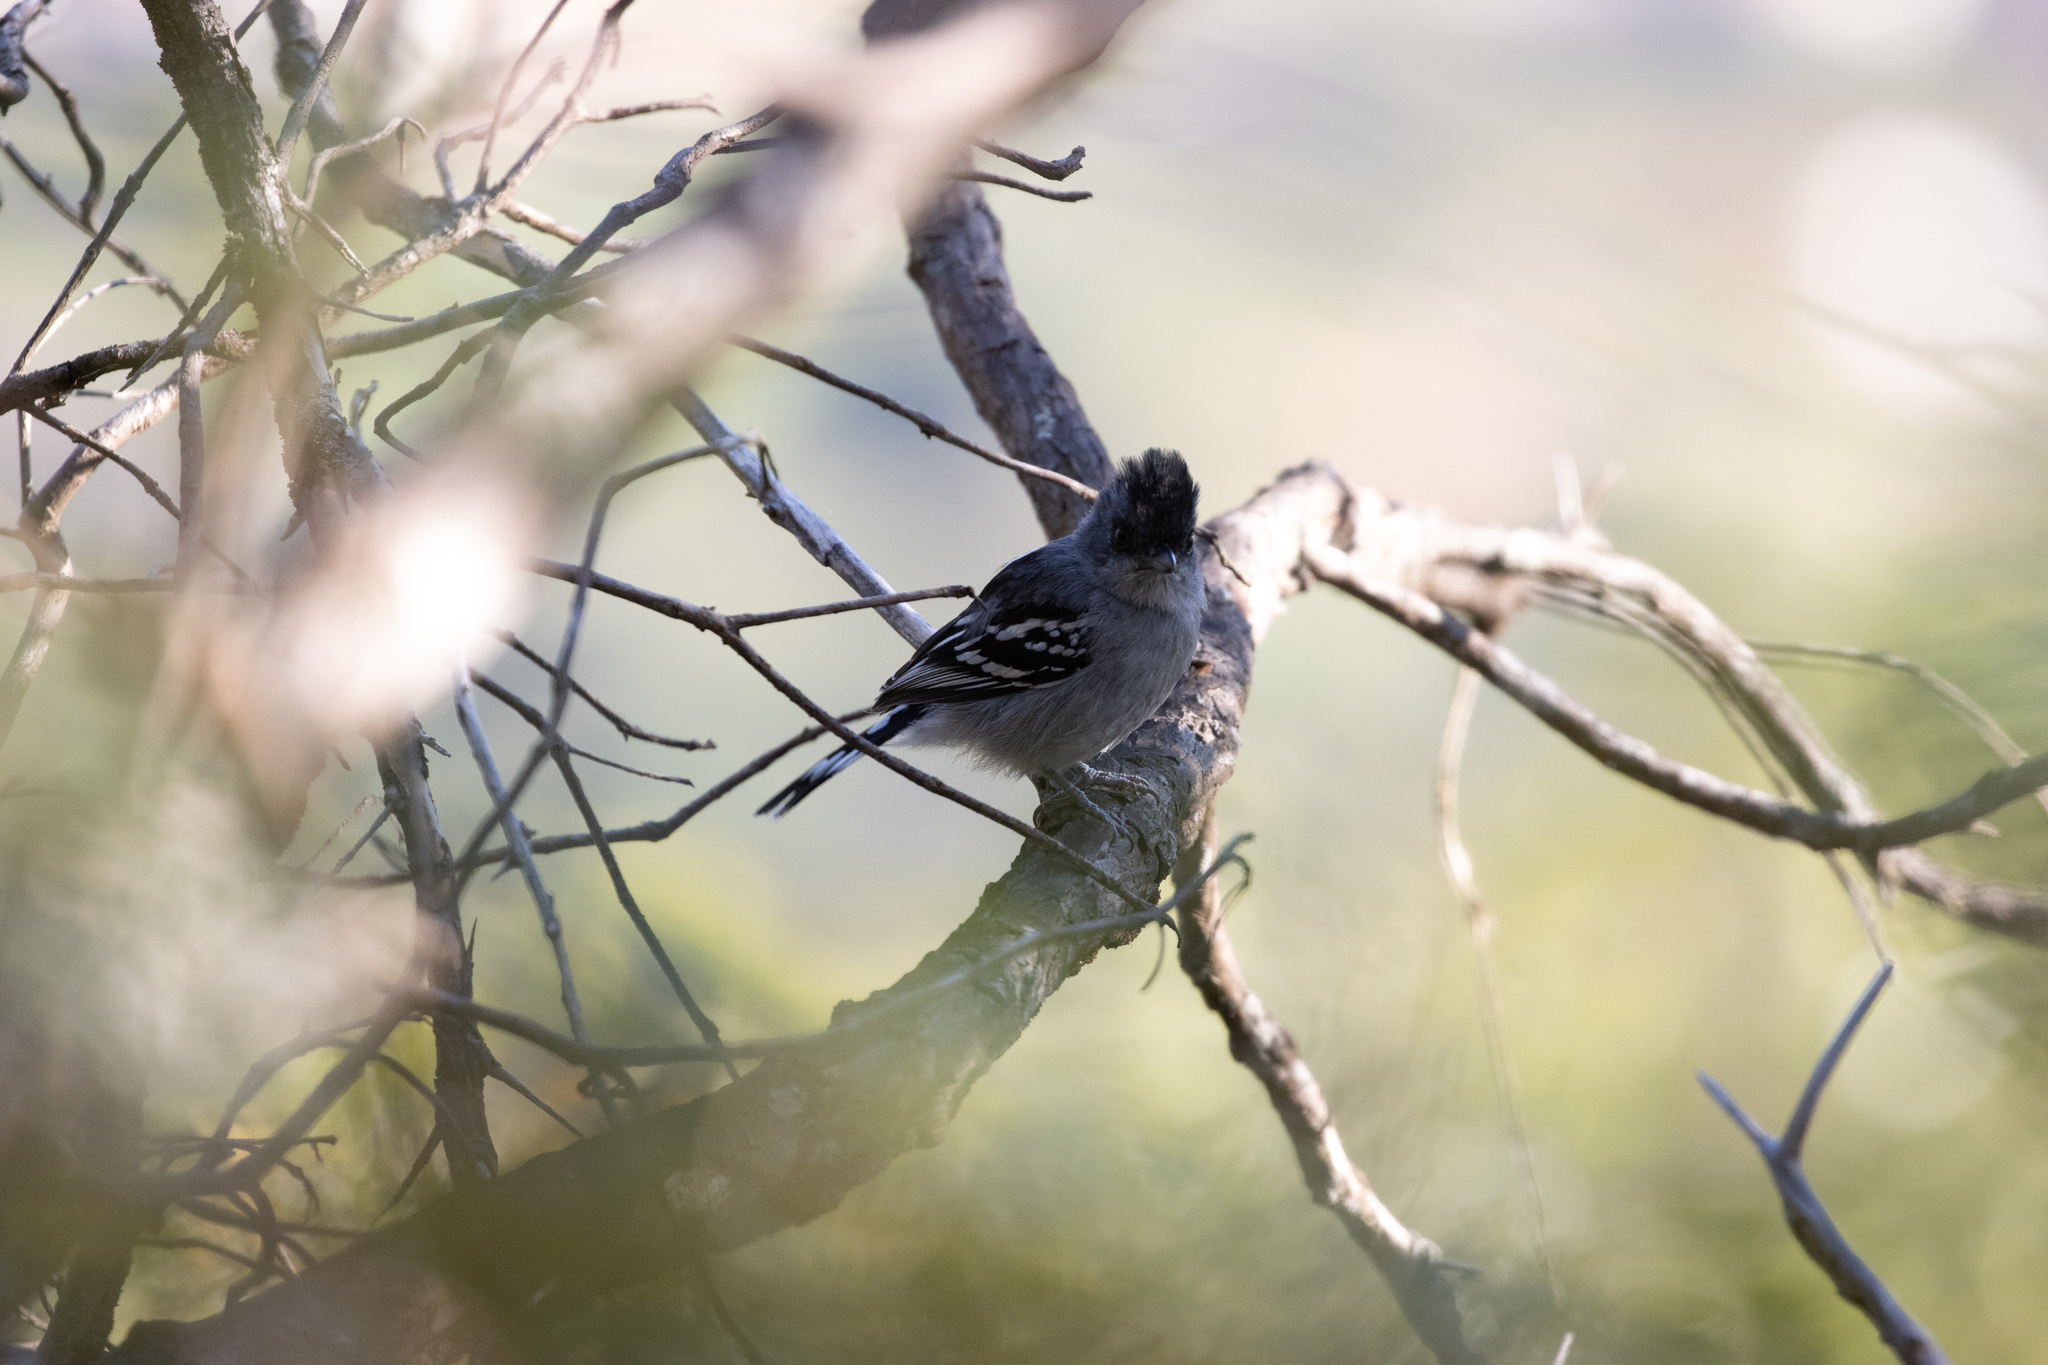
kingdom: Animalia
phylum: Chordata
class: Aves
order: Passeriformes
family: Thamnophilidae
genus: Thamnophilus
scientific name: Thamnophilus pelzelni
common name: Planalto slaty-antshrike
